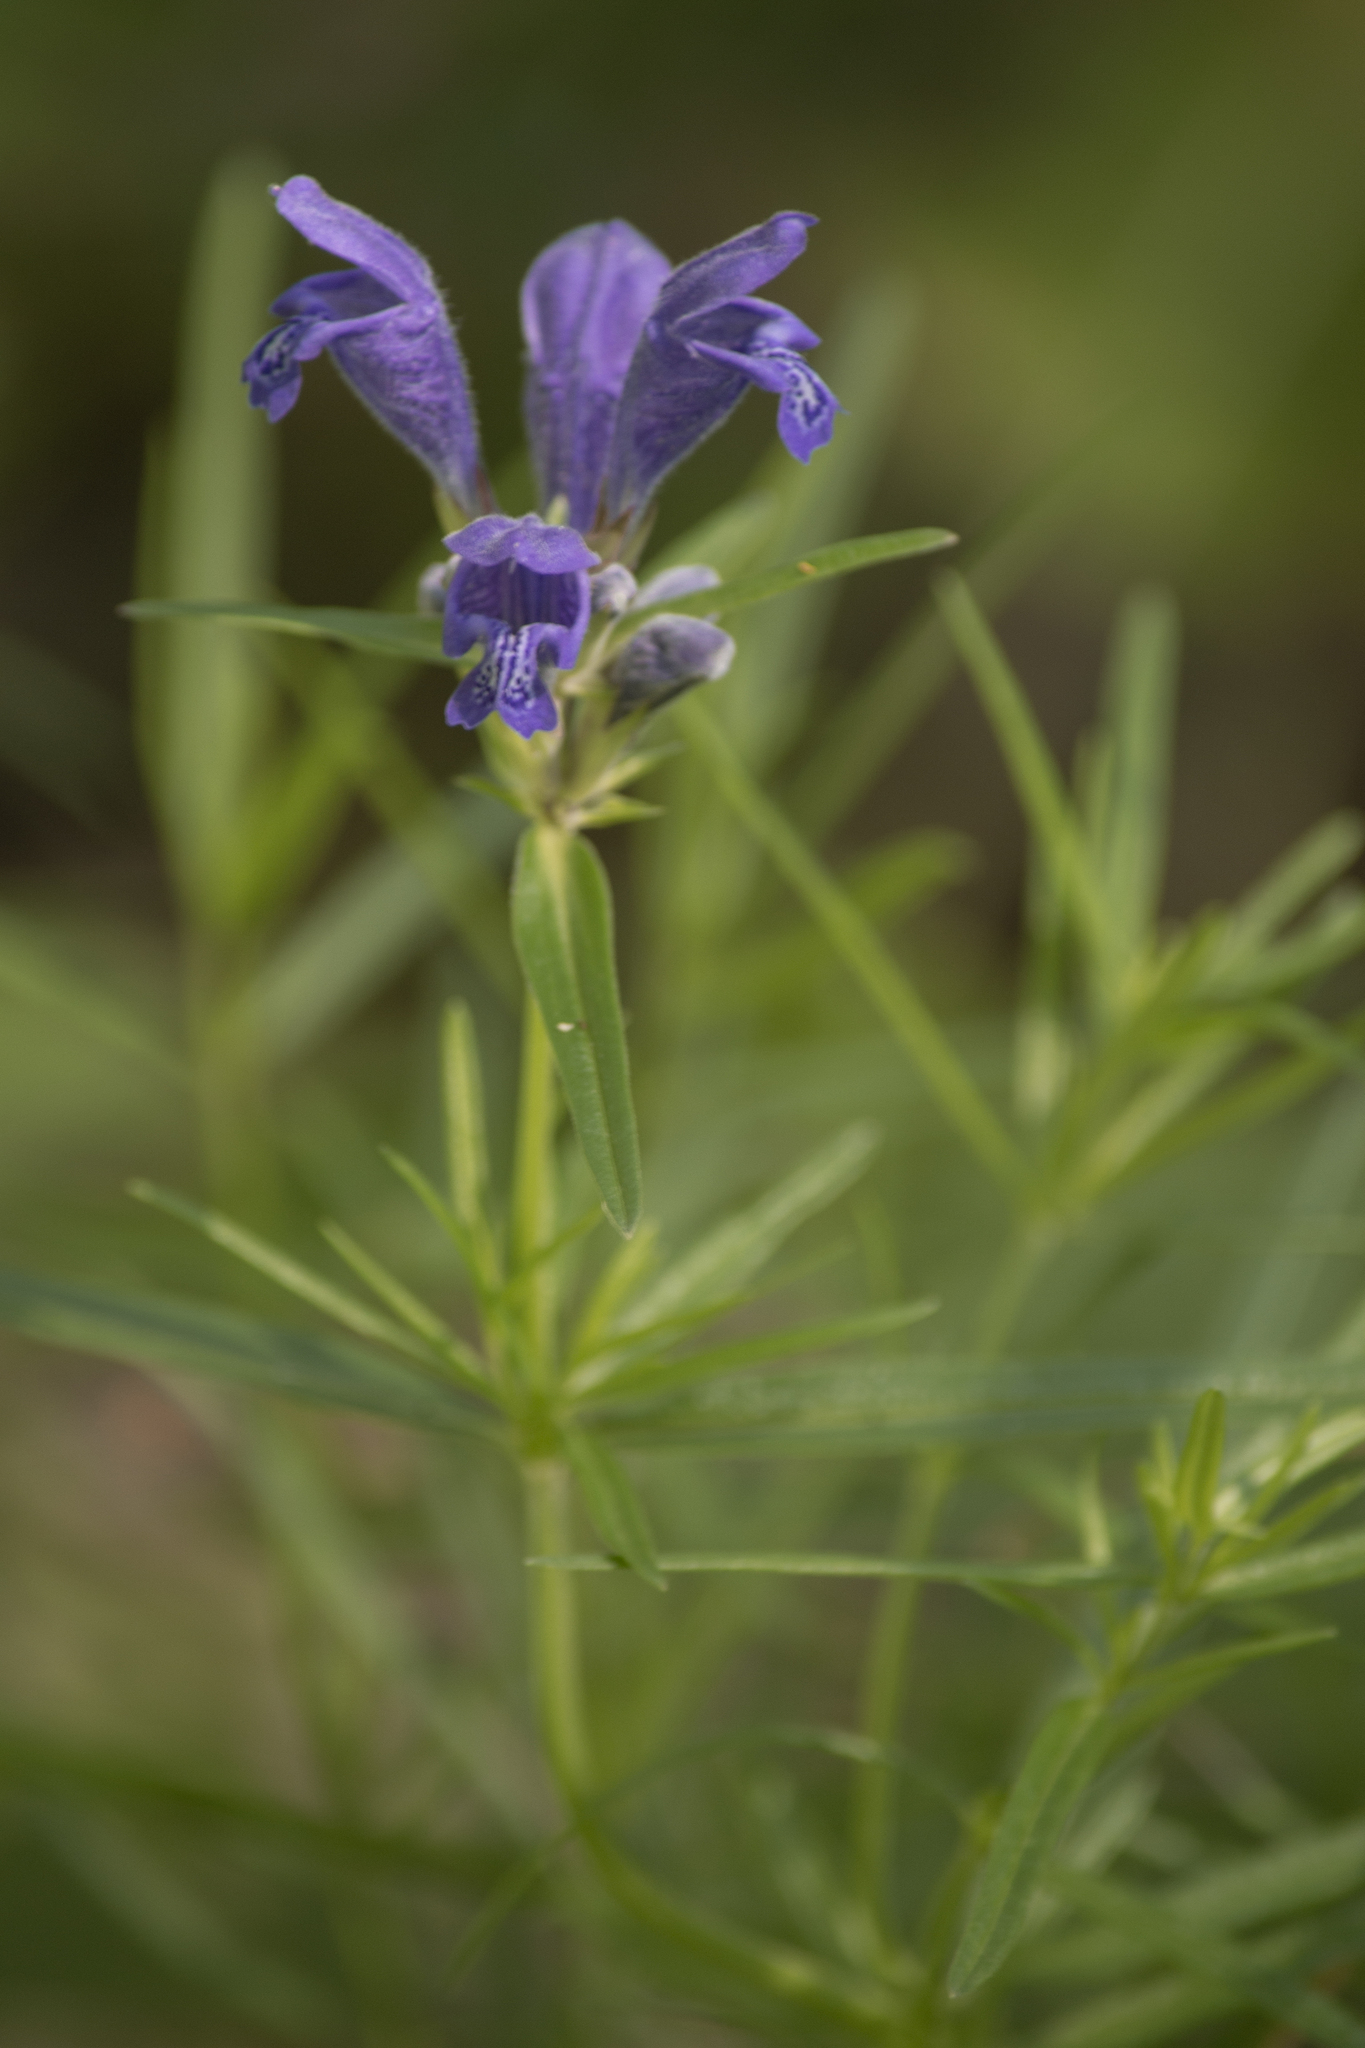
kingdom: Plantae
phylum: Tracheophyta
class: Magnoliopsida
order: Lamiales
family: Lamiaceae
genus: Dracocephalum
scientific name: Dracocephalum ruyschiana
